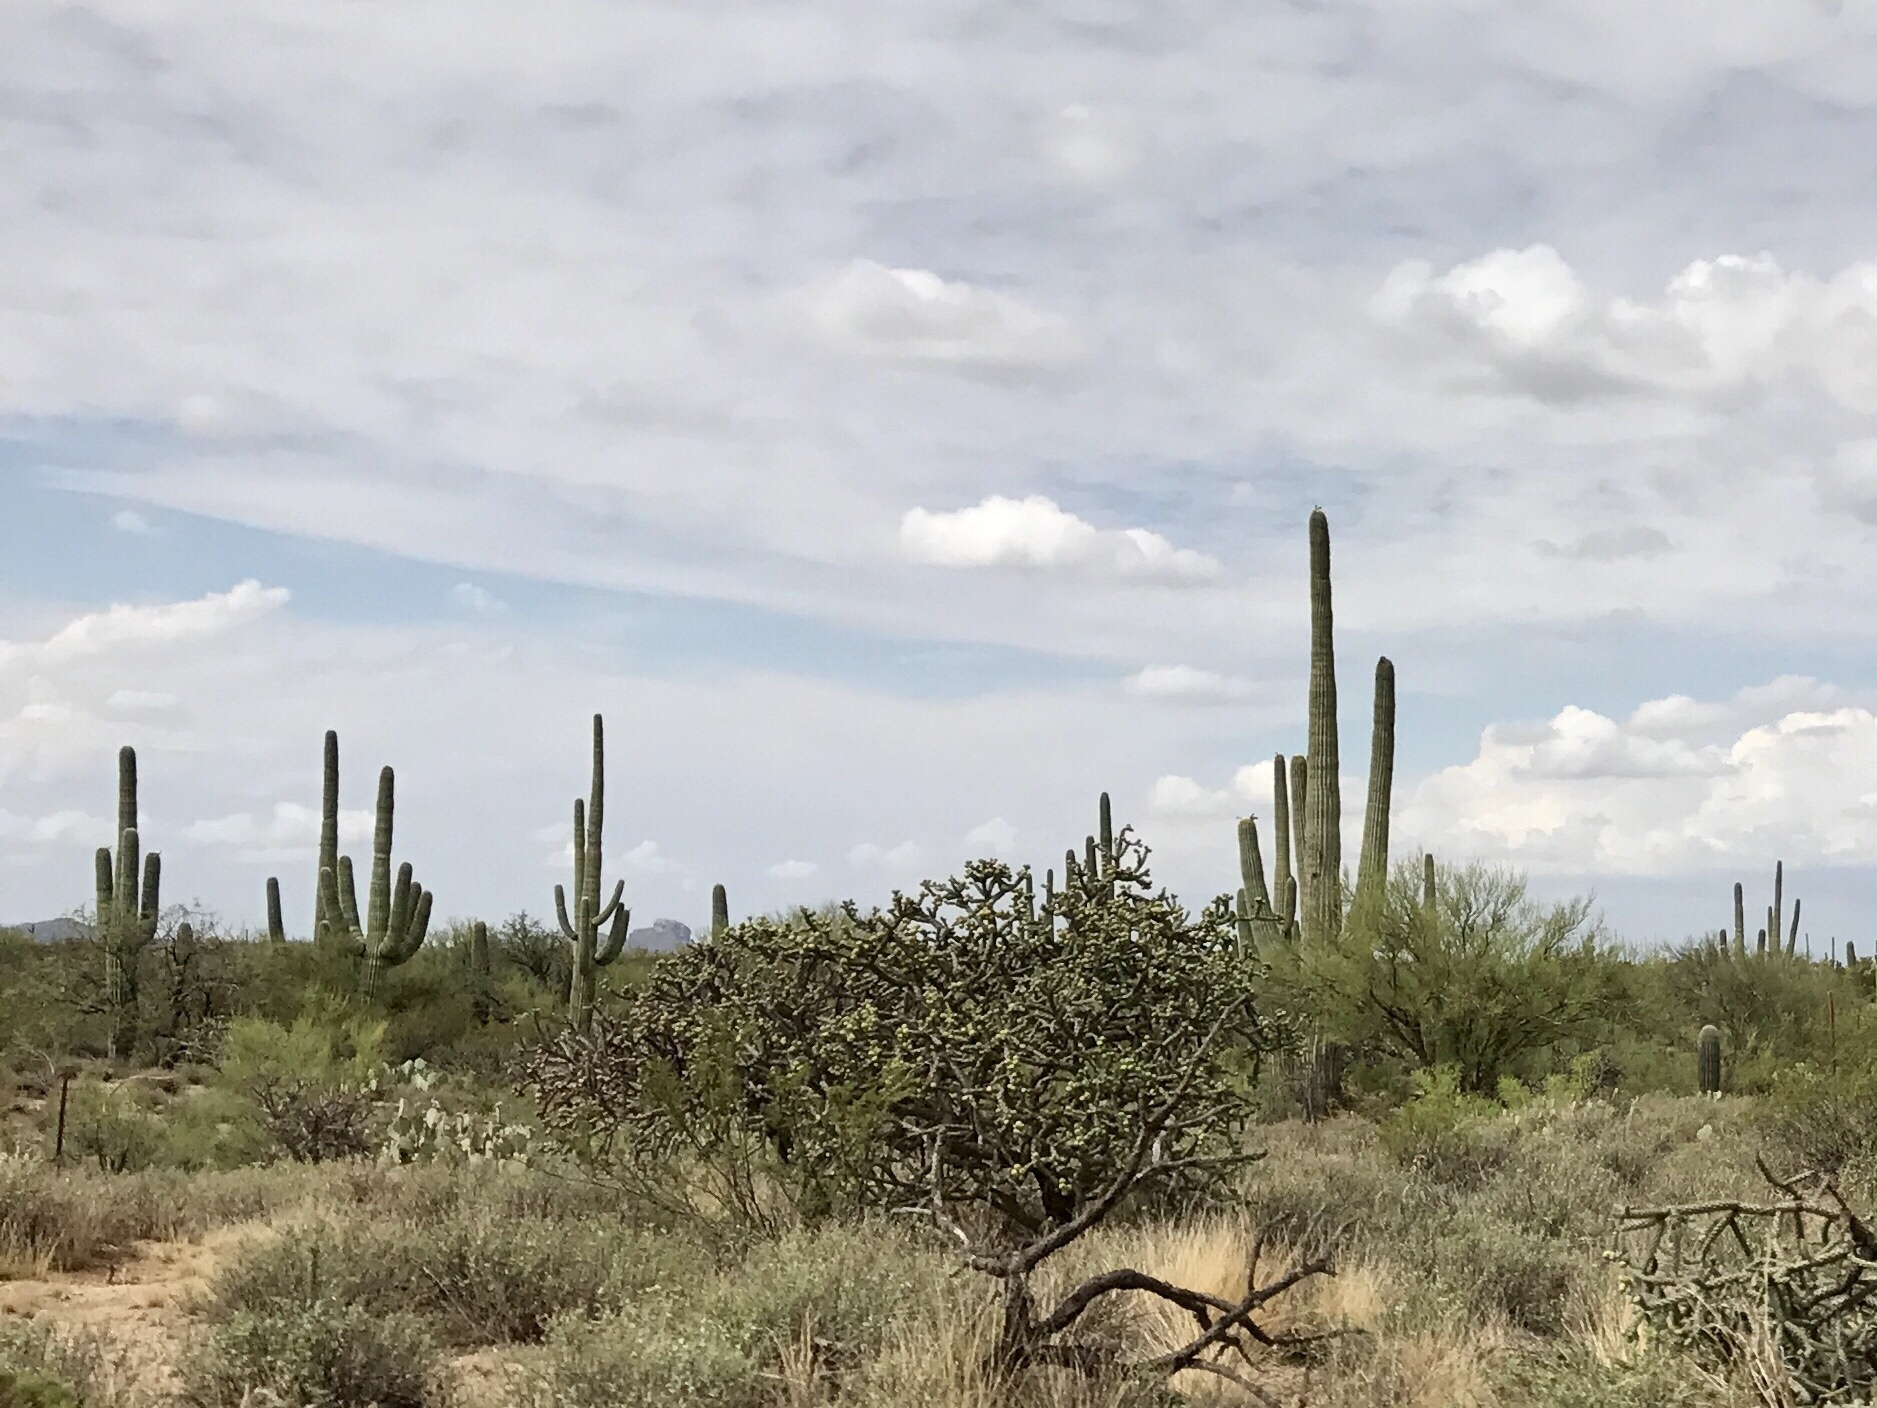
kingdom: Plantae
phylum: Tracheophyta
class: Magnoliopsida
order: Caryophyllales
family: Cactaceae
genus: Carnegiea
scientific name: Carnegiea gigantea
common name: Saguaro
